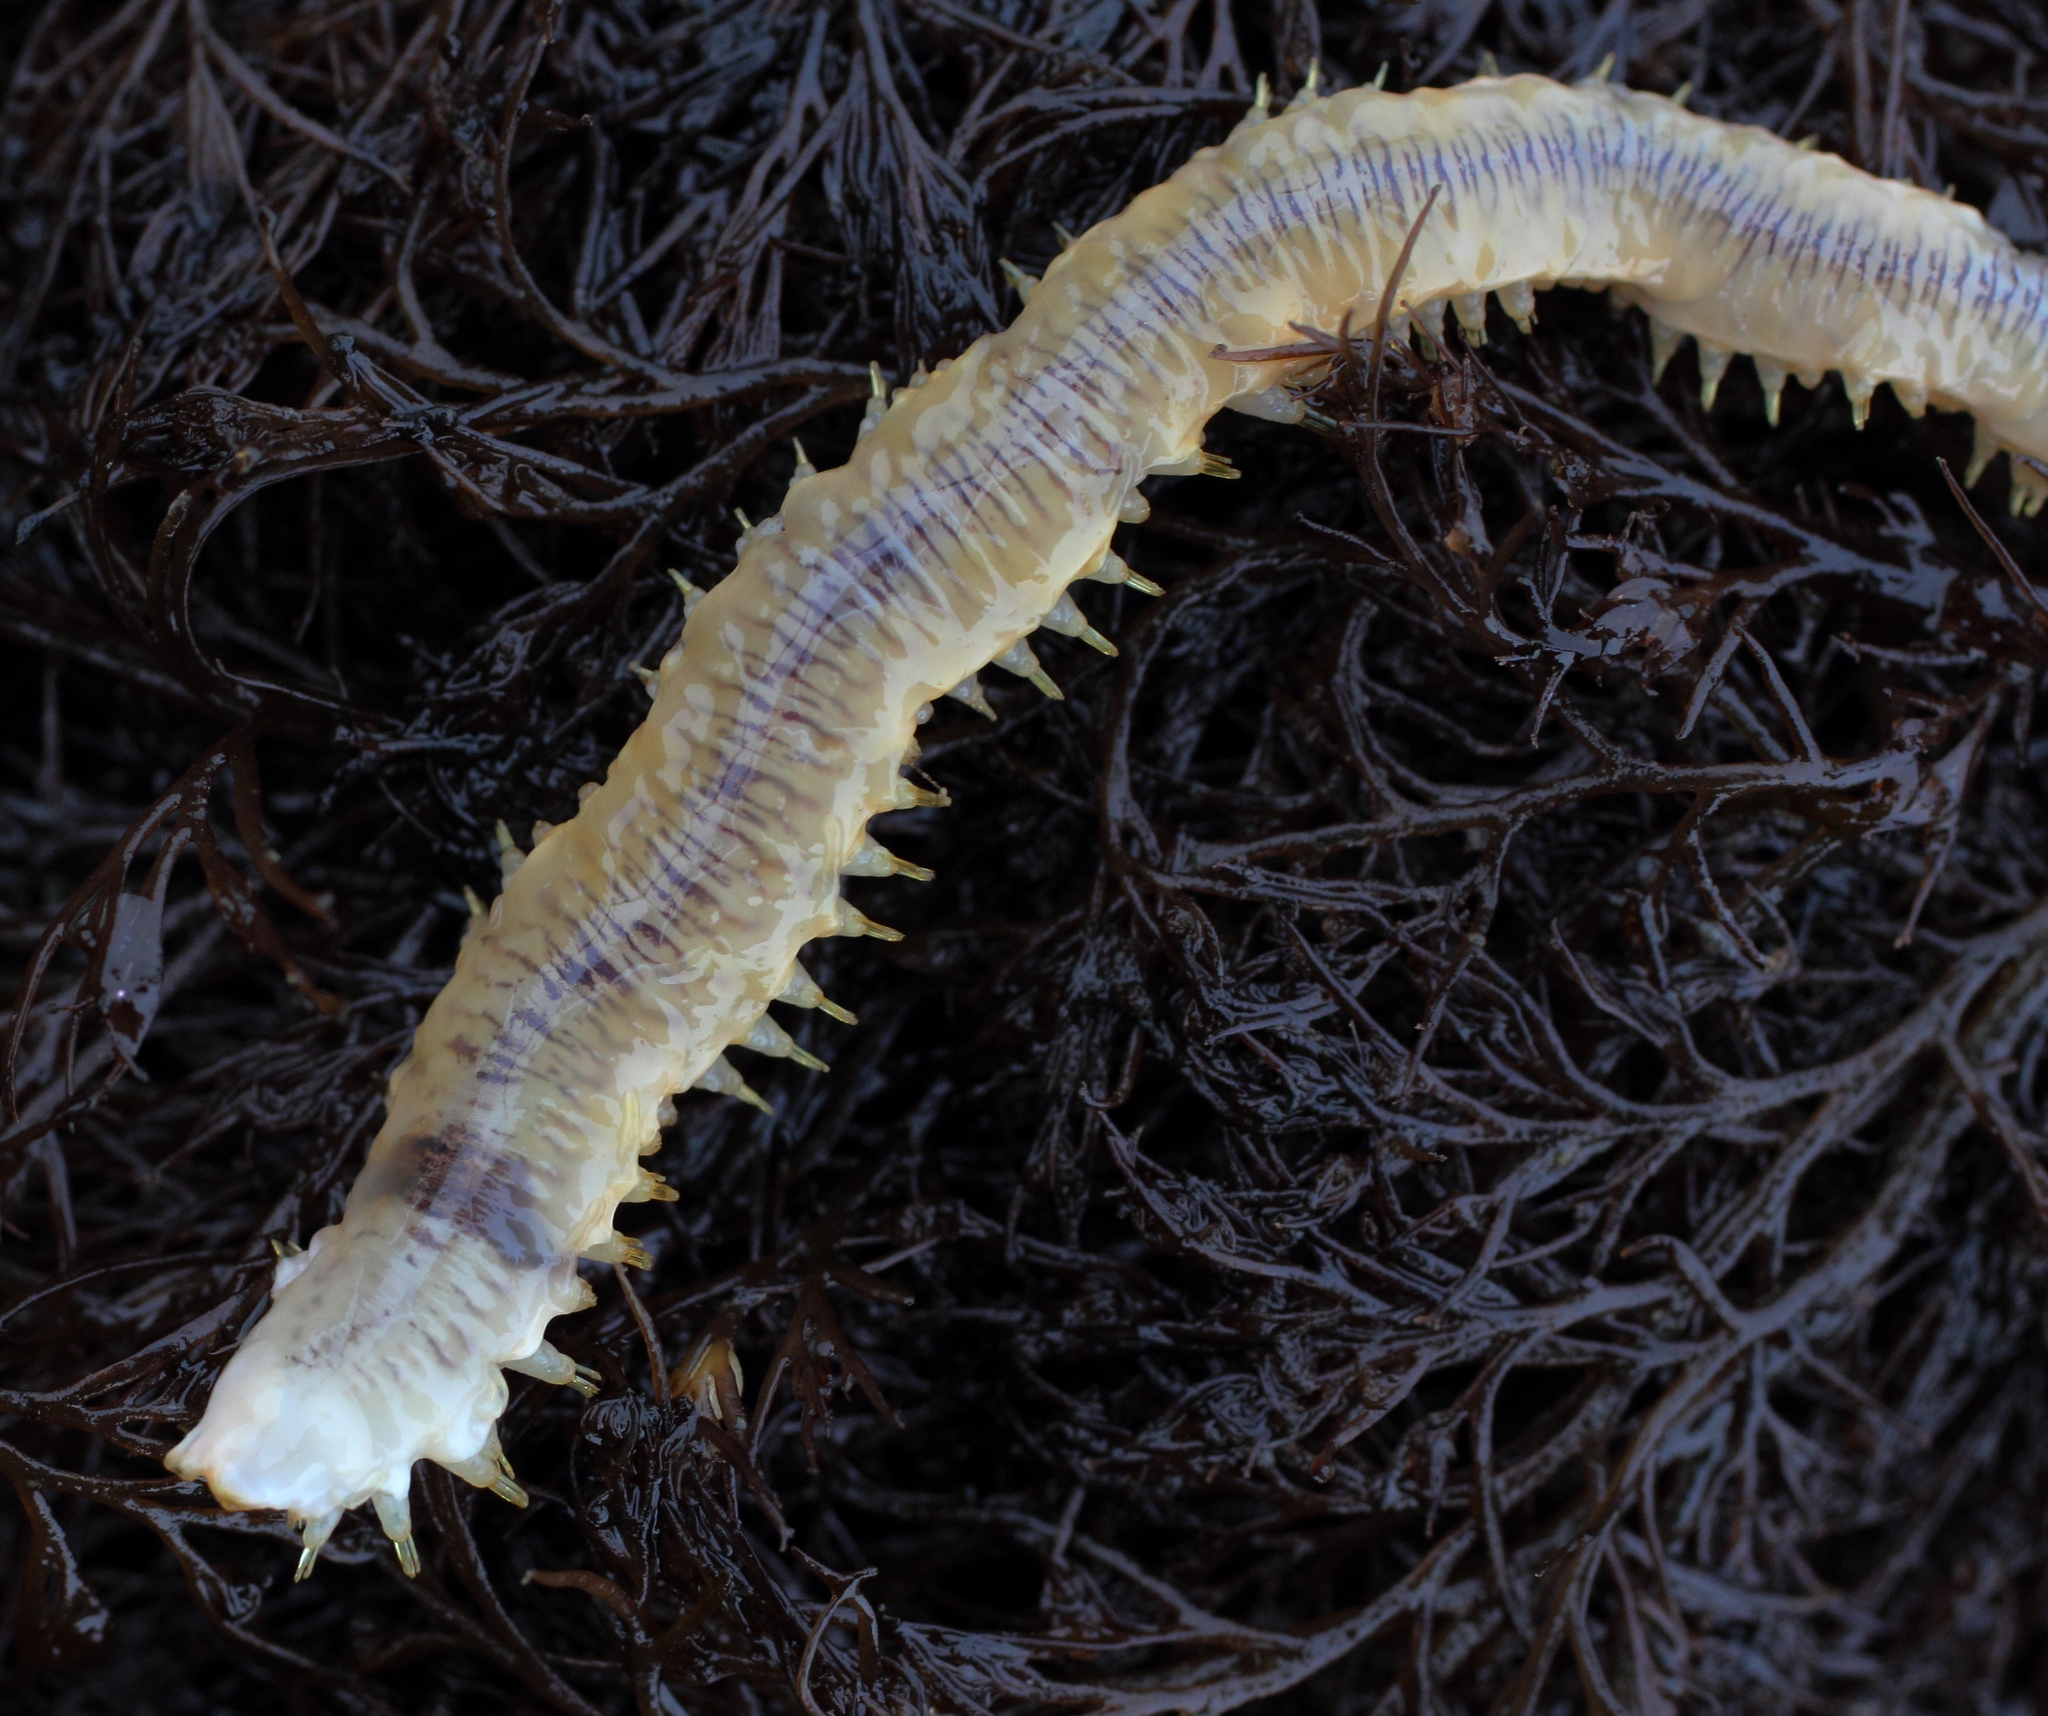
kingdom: Animalia
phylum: Annelida
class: Polychaeta
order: Phyllodocida
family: Polynoidae
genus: Arctonoe
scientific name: Arctonoe vittata
